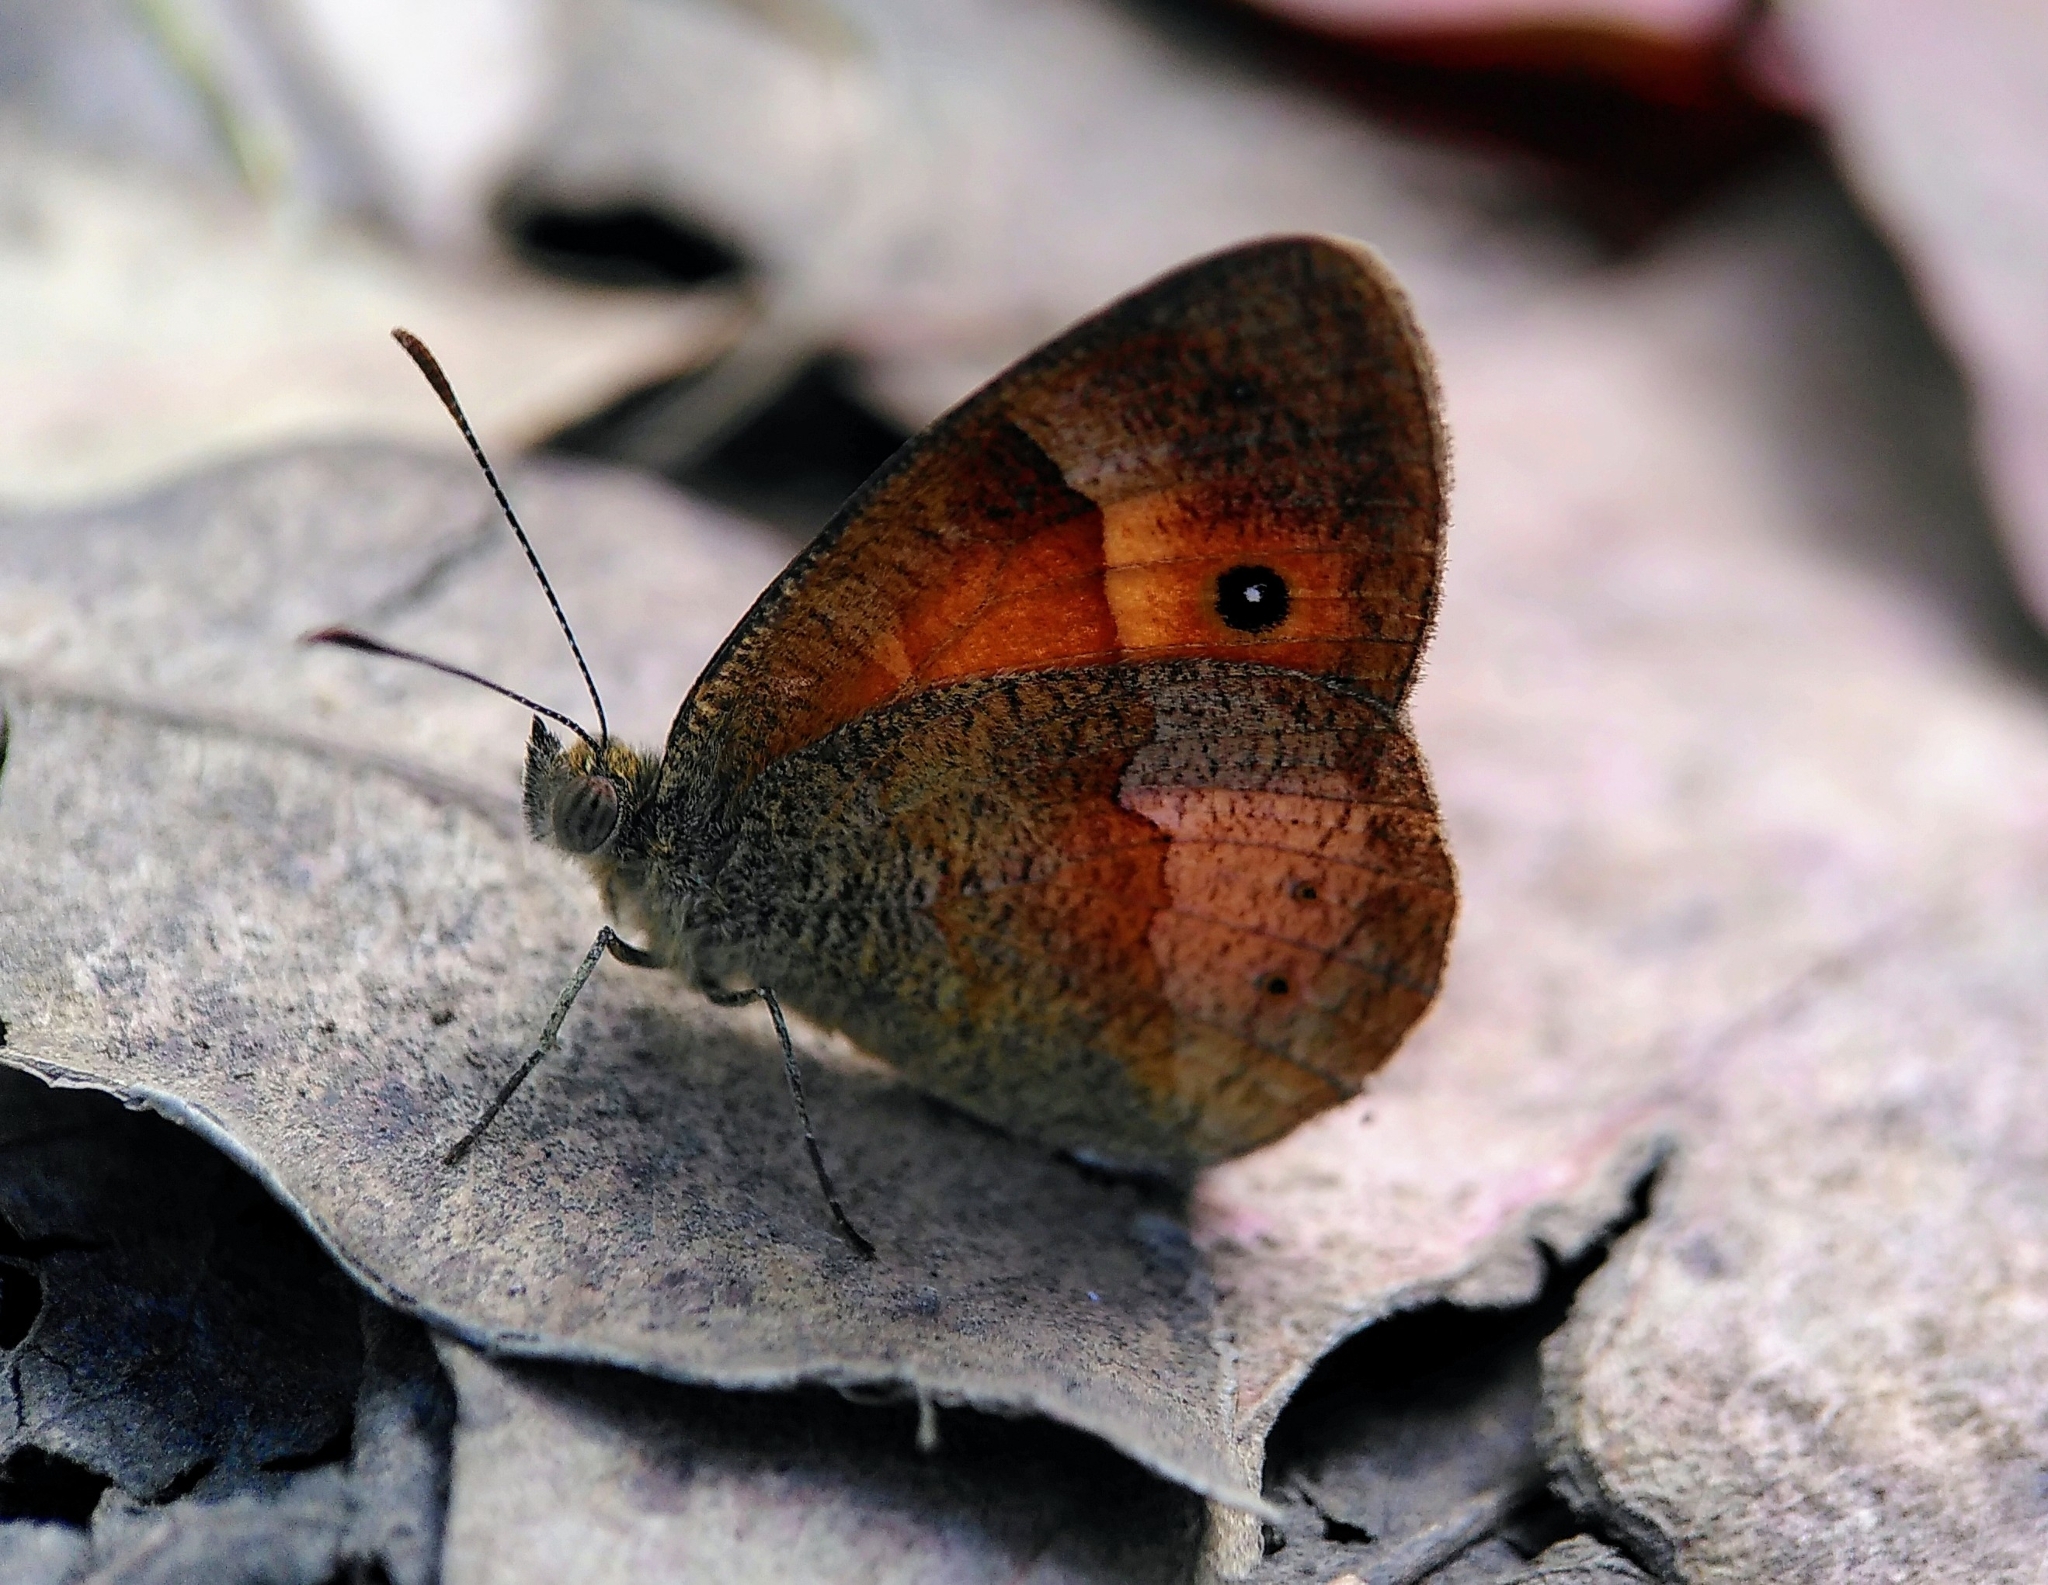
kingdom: Animalia
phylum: Arthropoda
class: Insecta
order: Lepidoptera
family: Nymphalidae
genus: Henotesia
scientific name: Henotesia narcissus
